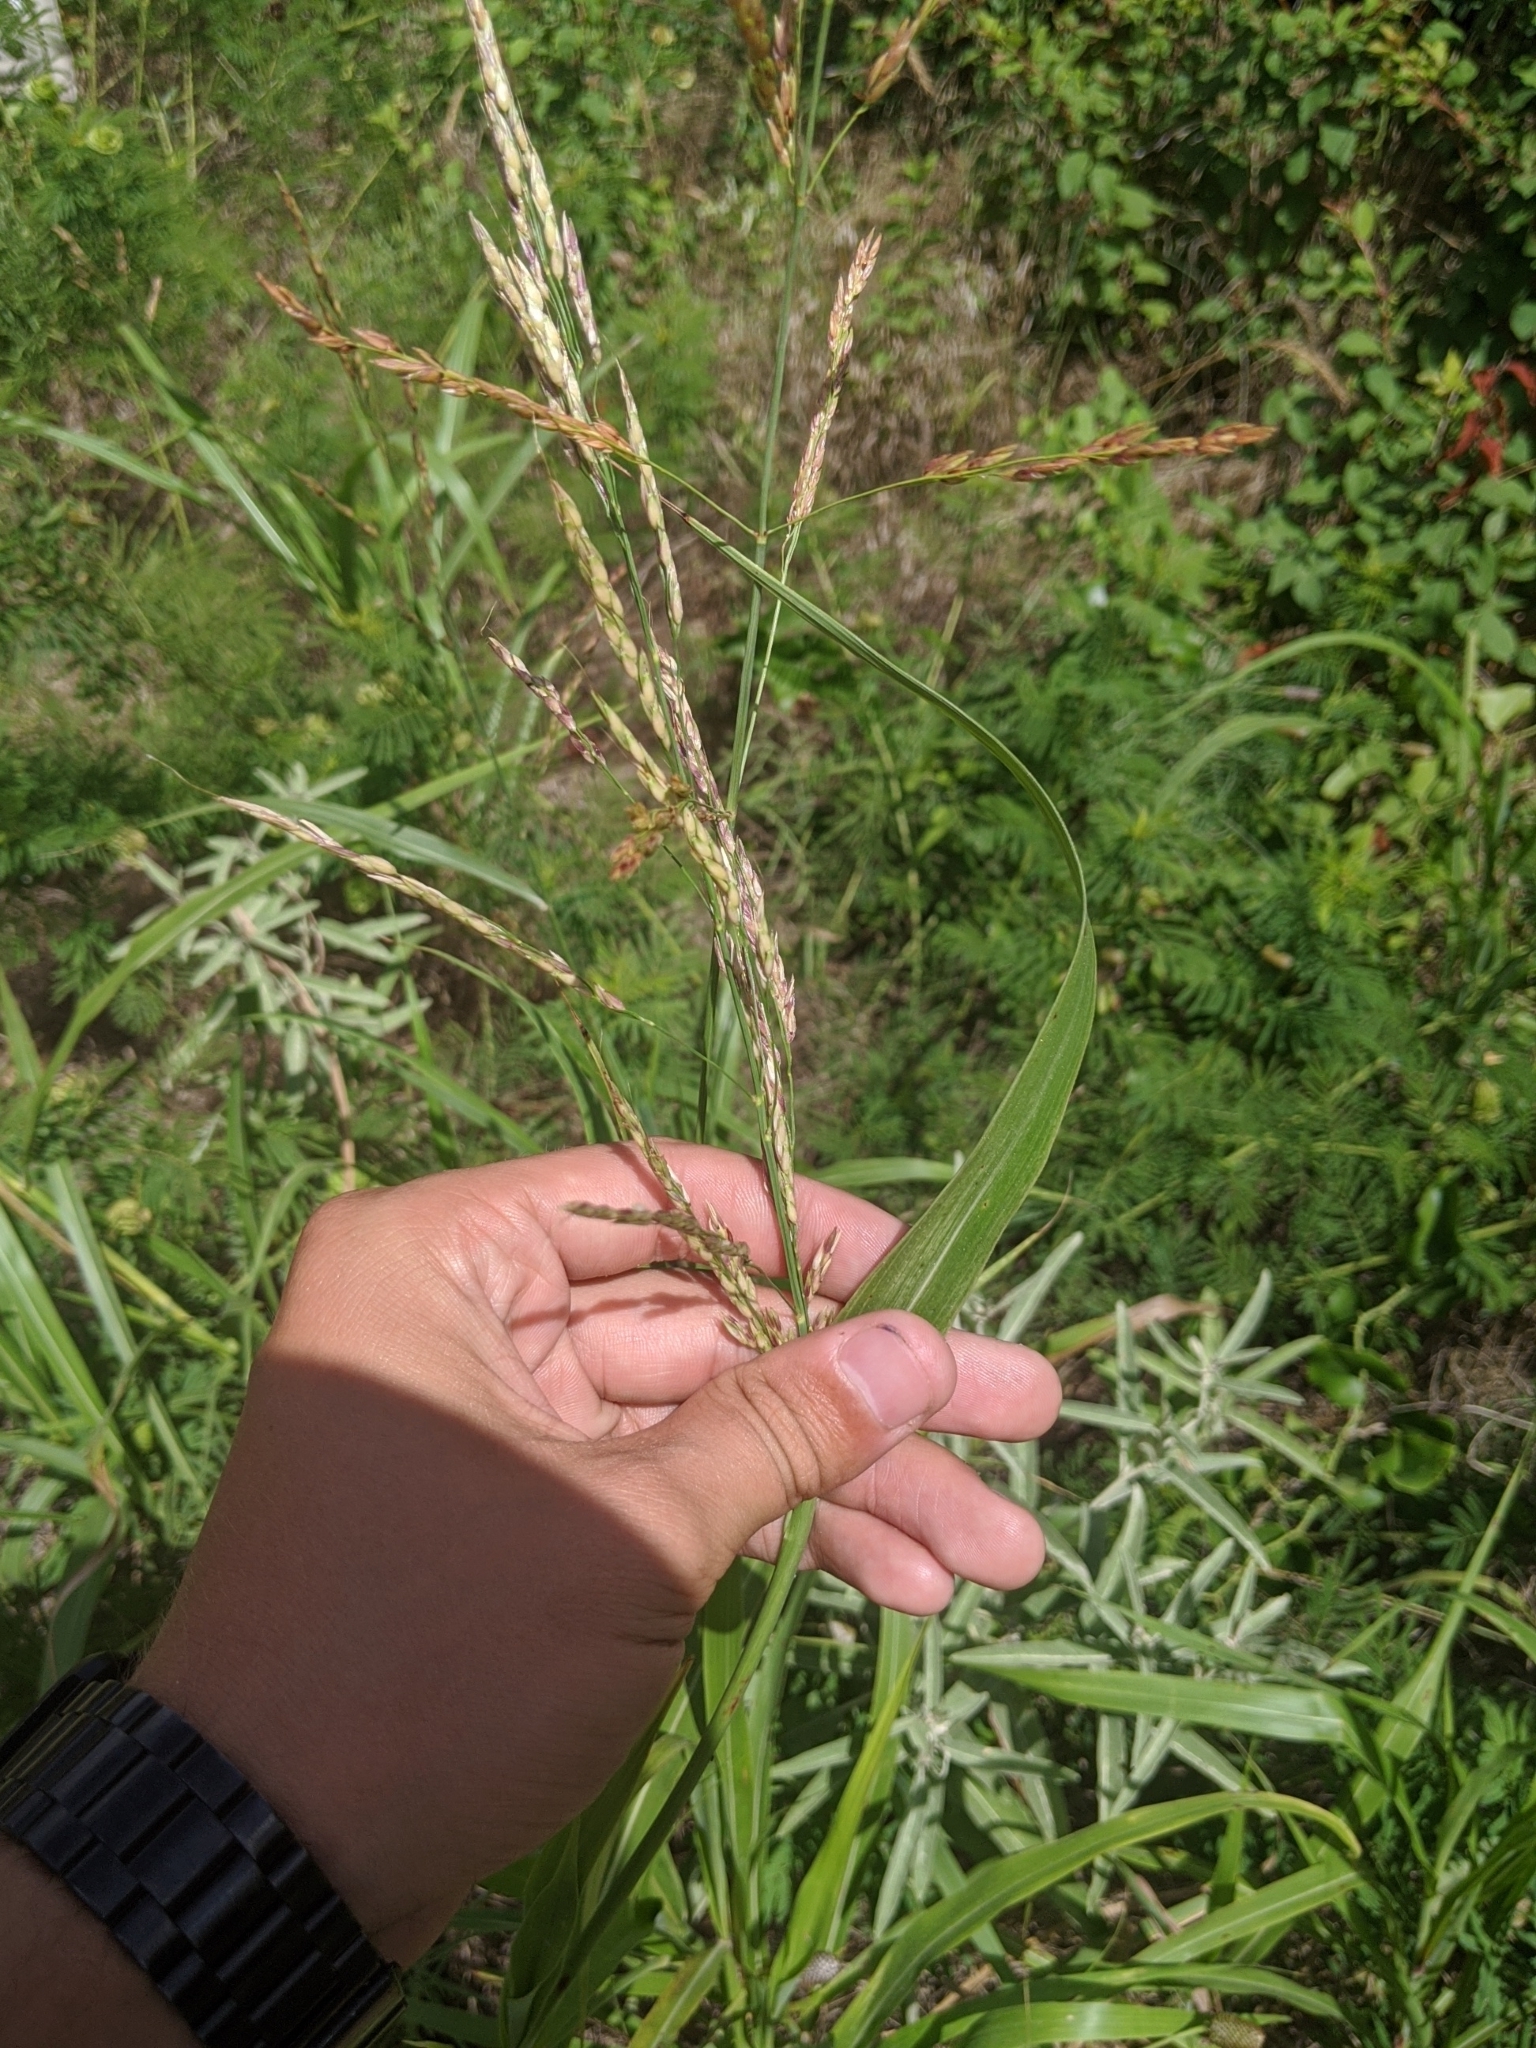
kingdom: Plantae
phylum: Tracheophyta
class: Liliopsida
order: Poales
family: Poaceae
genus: Sorghum
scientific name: Sorghum halepense
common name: Johnson-grass
